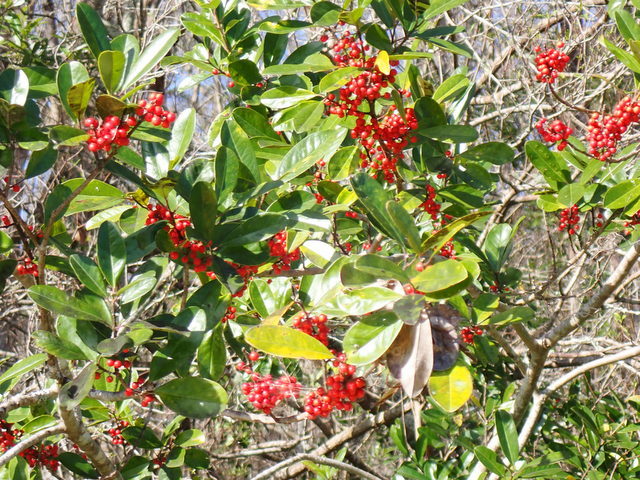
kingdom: Plantae
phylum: Tracheophyta
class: Magnoliopsida
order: Aquifoliales
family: Aquifoliaceae
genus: Ilex
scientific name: Ilex cassine
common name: Dahoon
